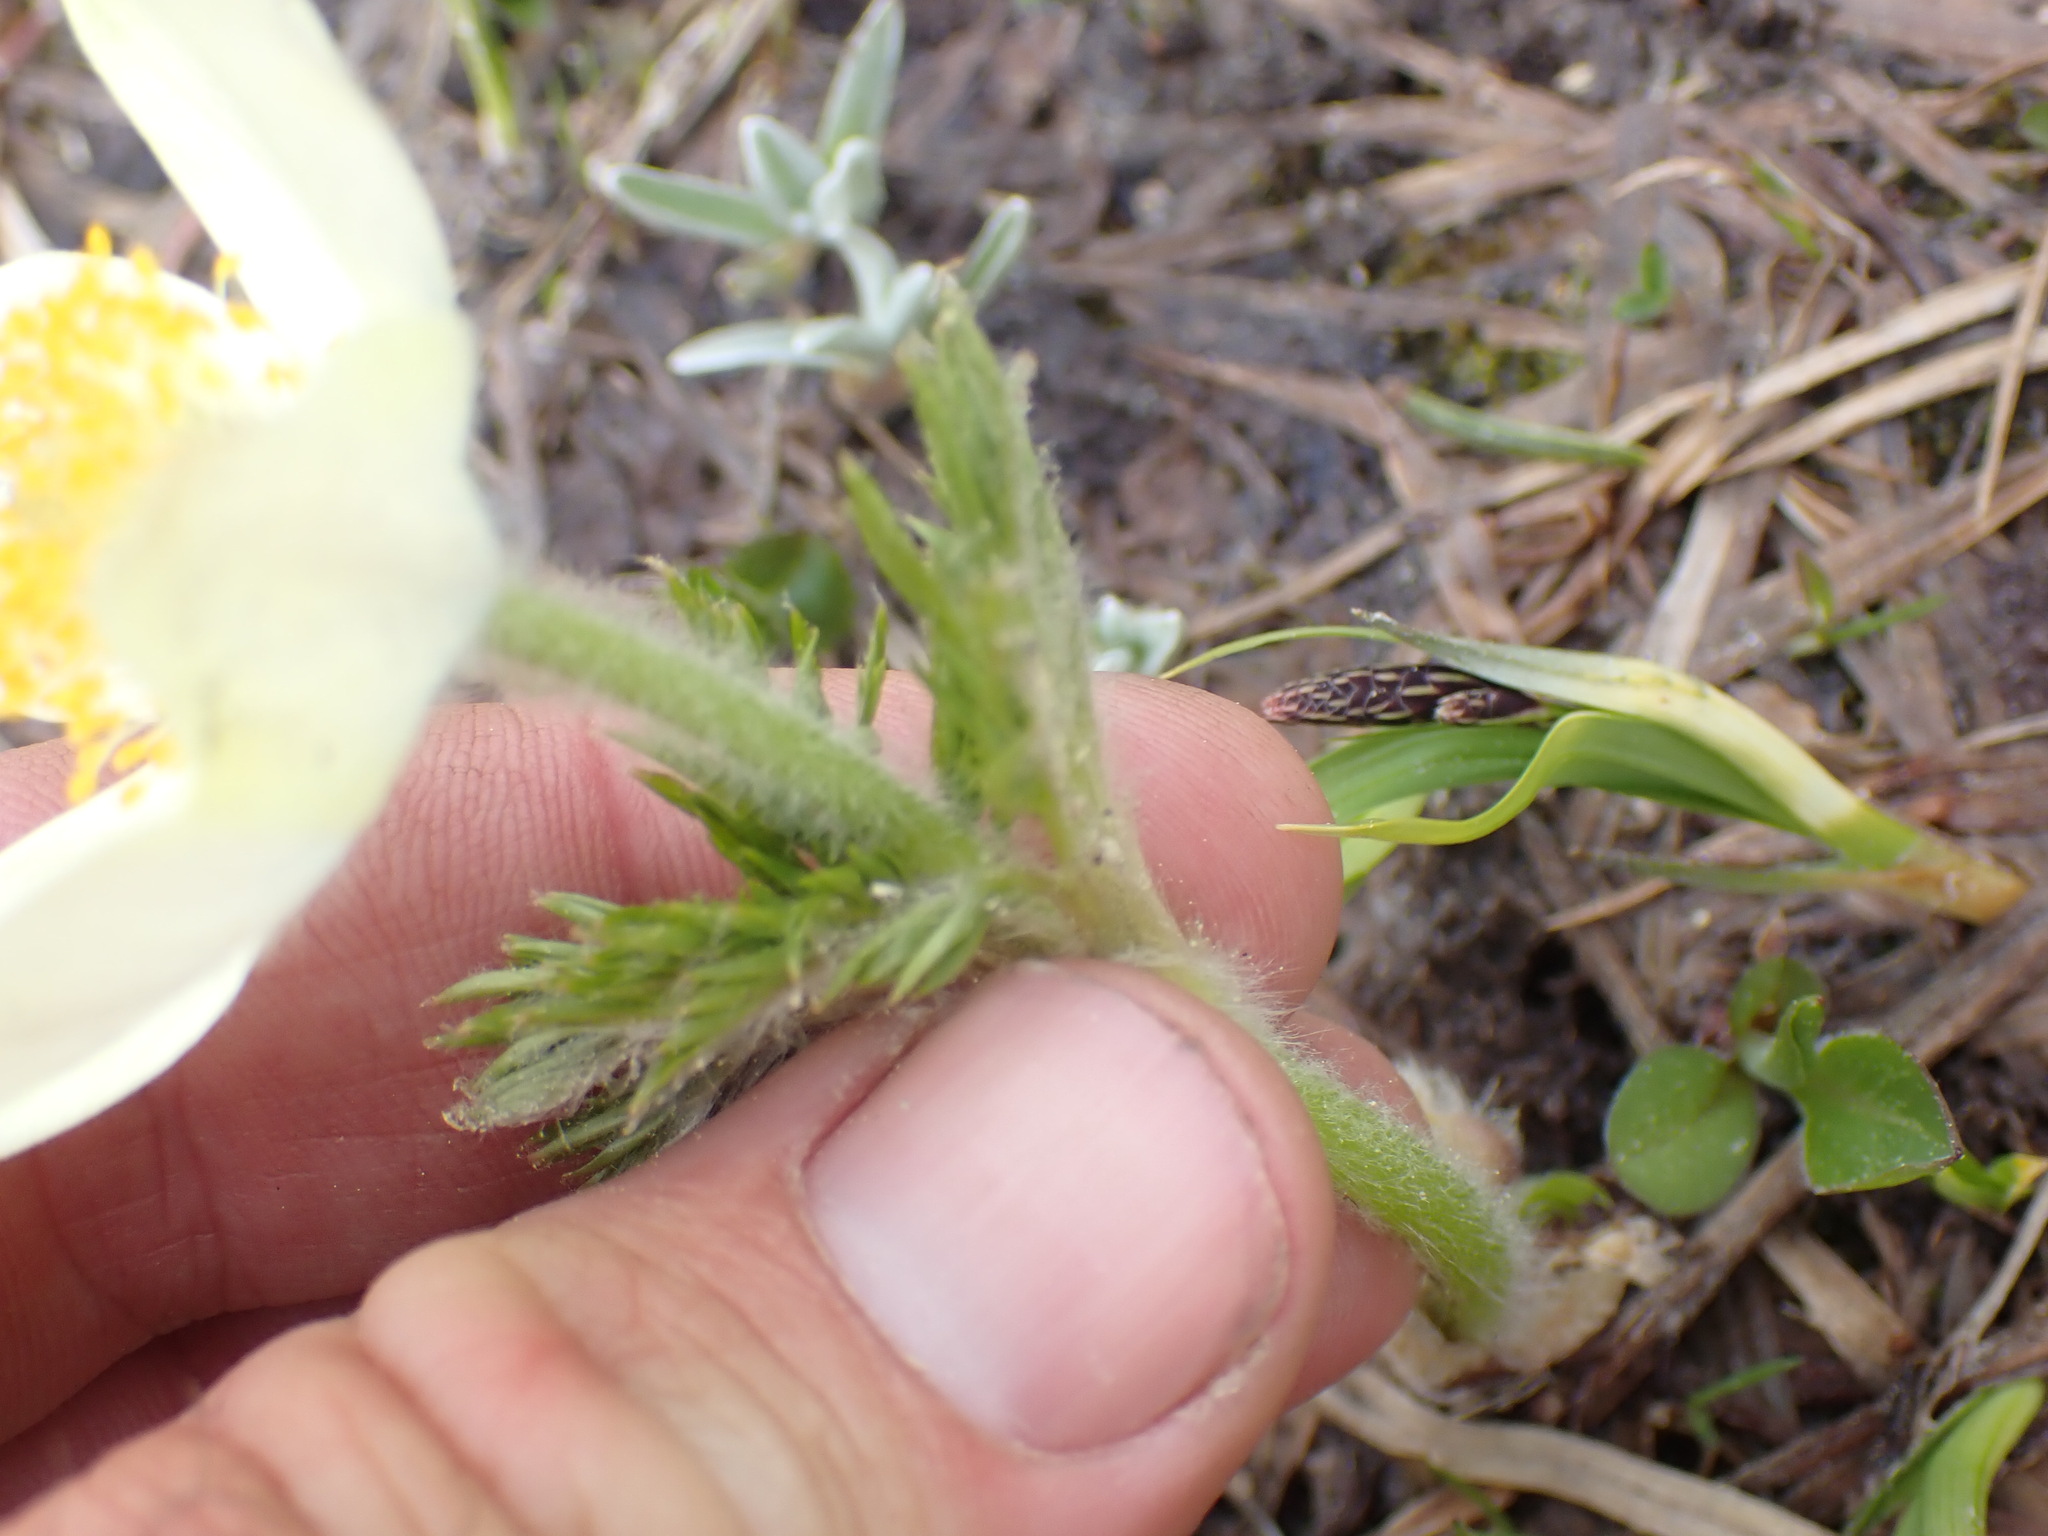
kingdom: Plantae
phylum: Tracheophyta
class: Magnoliopsida
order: Ranunculales
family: Ranunculaceae
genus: Pulsatilla
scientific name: Pulsatilla occidentalis
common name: Mountain pasqueflower
